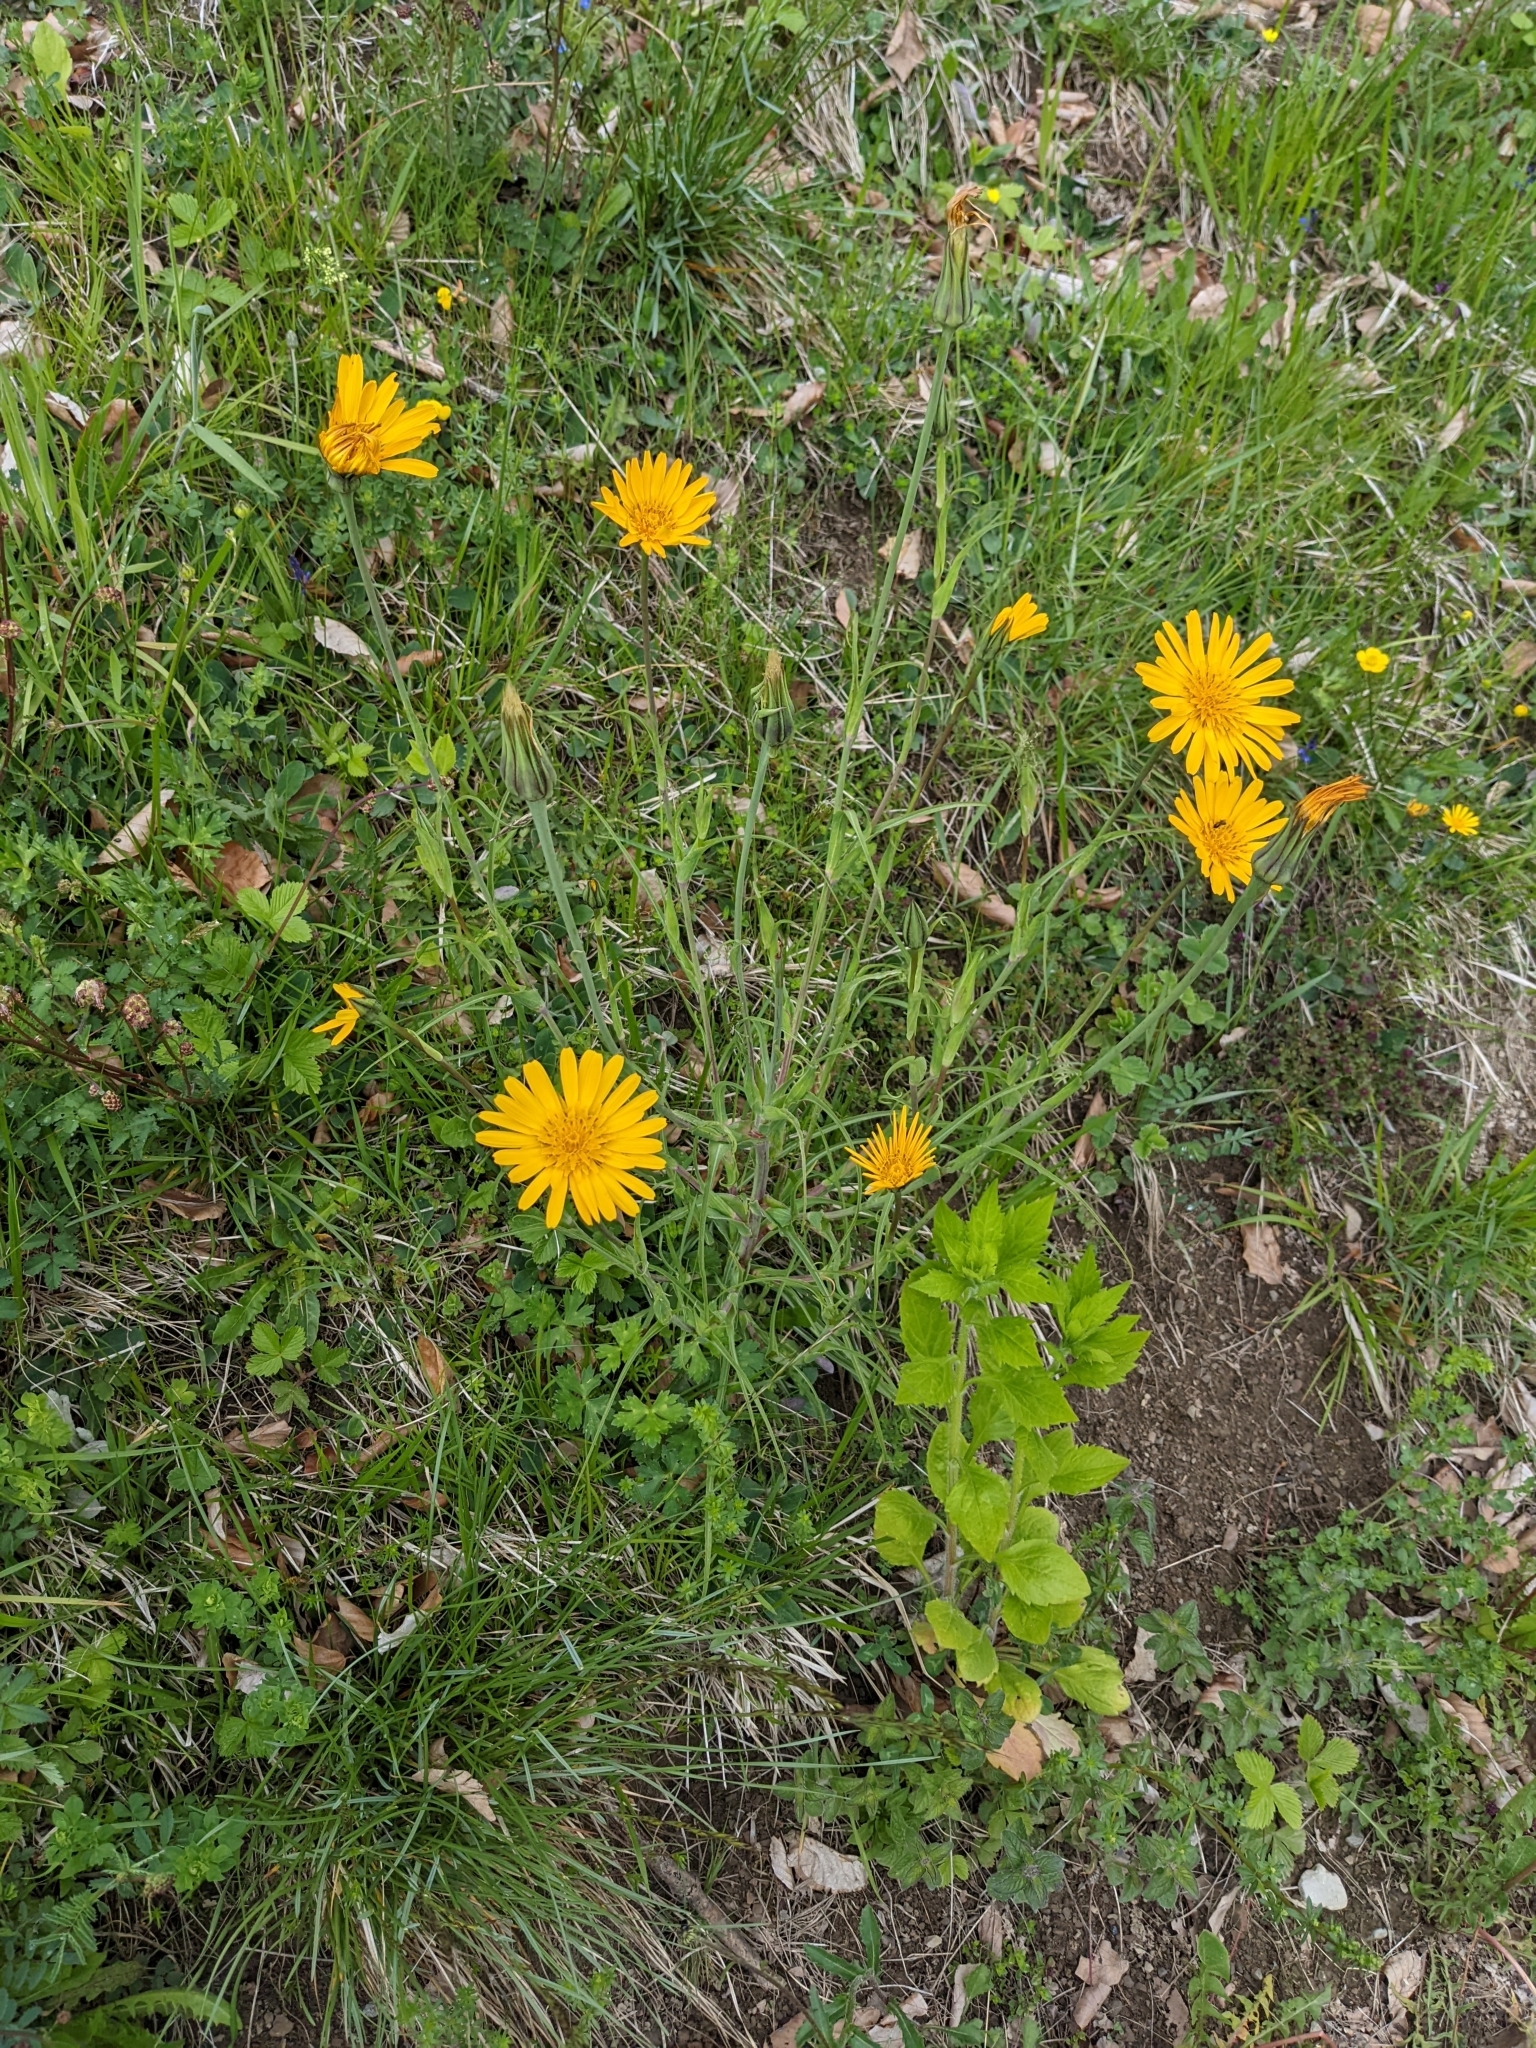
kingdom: Plantae
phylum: Tracheophyta
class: Magnoliopsida
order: Asterales
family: Asteraceae
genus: Tragopogon
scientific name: Tragopogon orientalis
